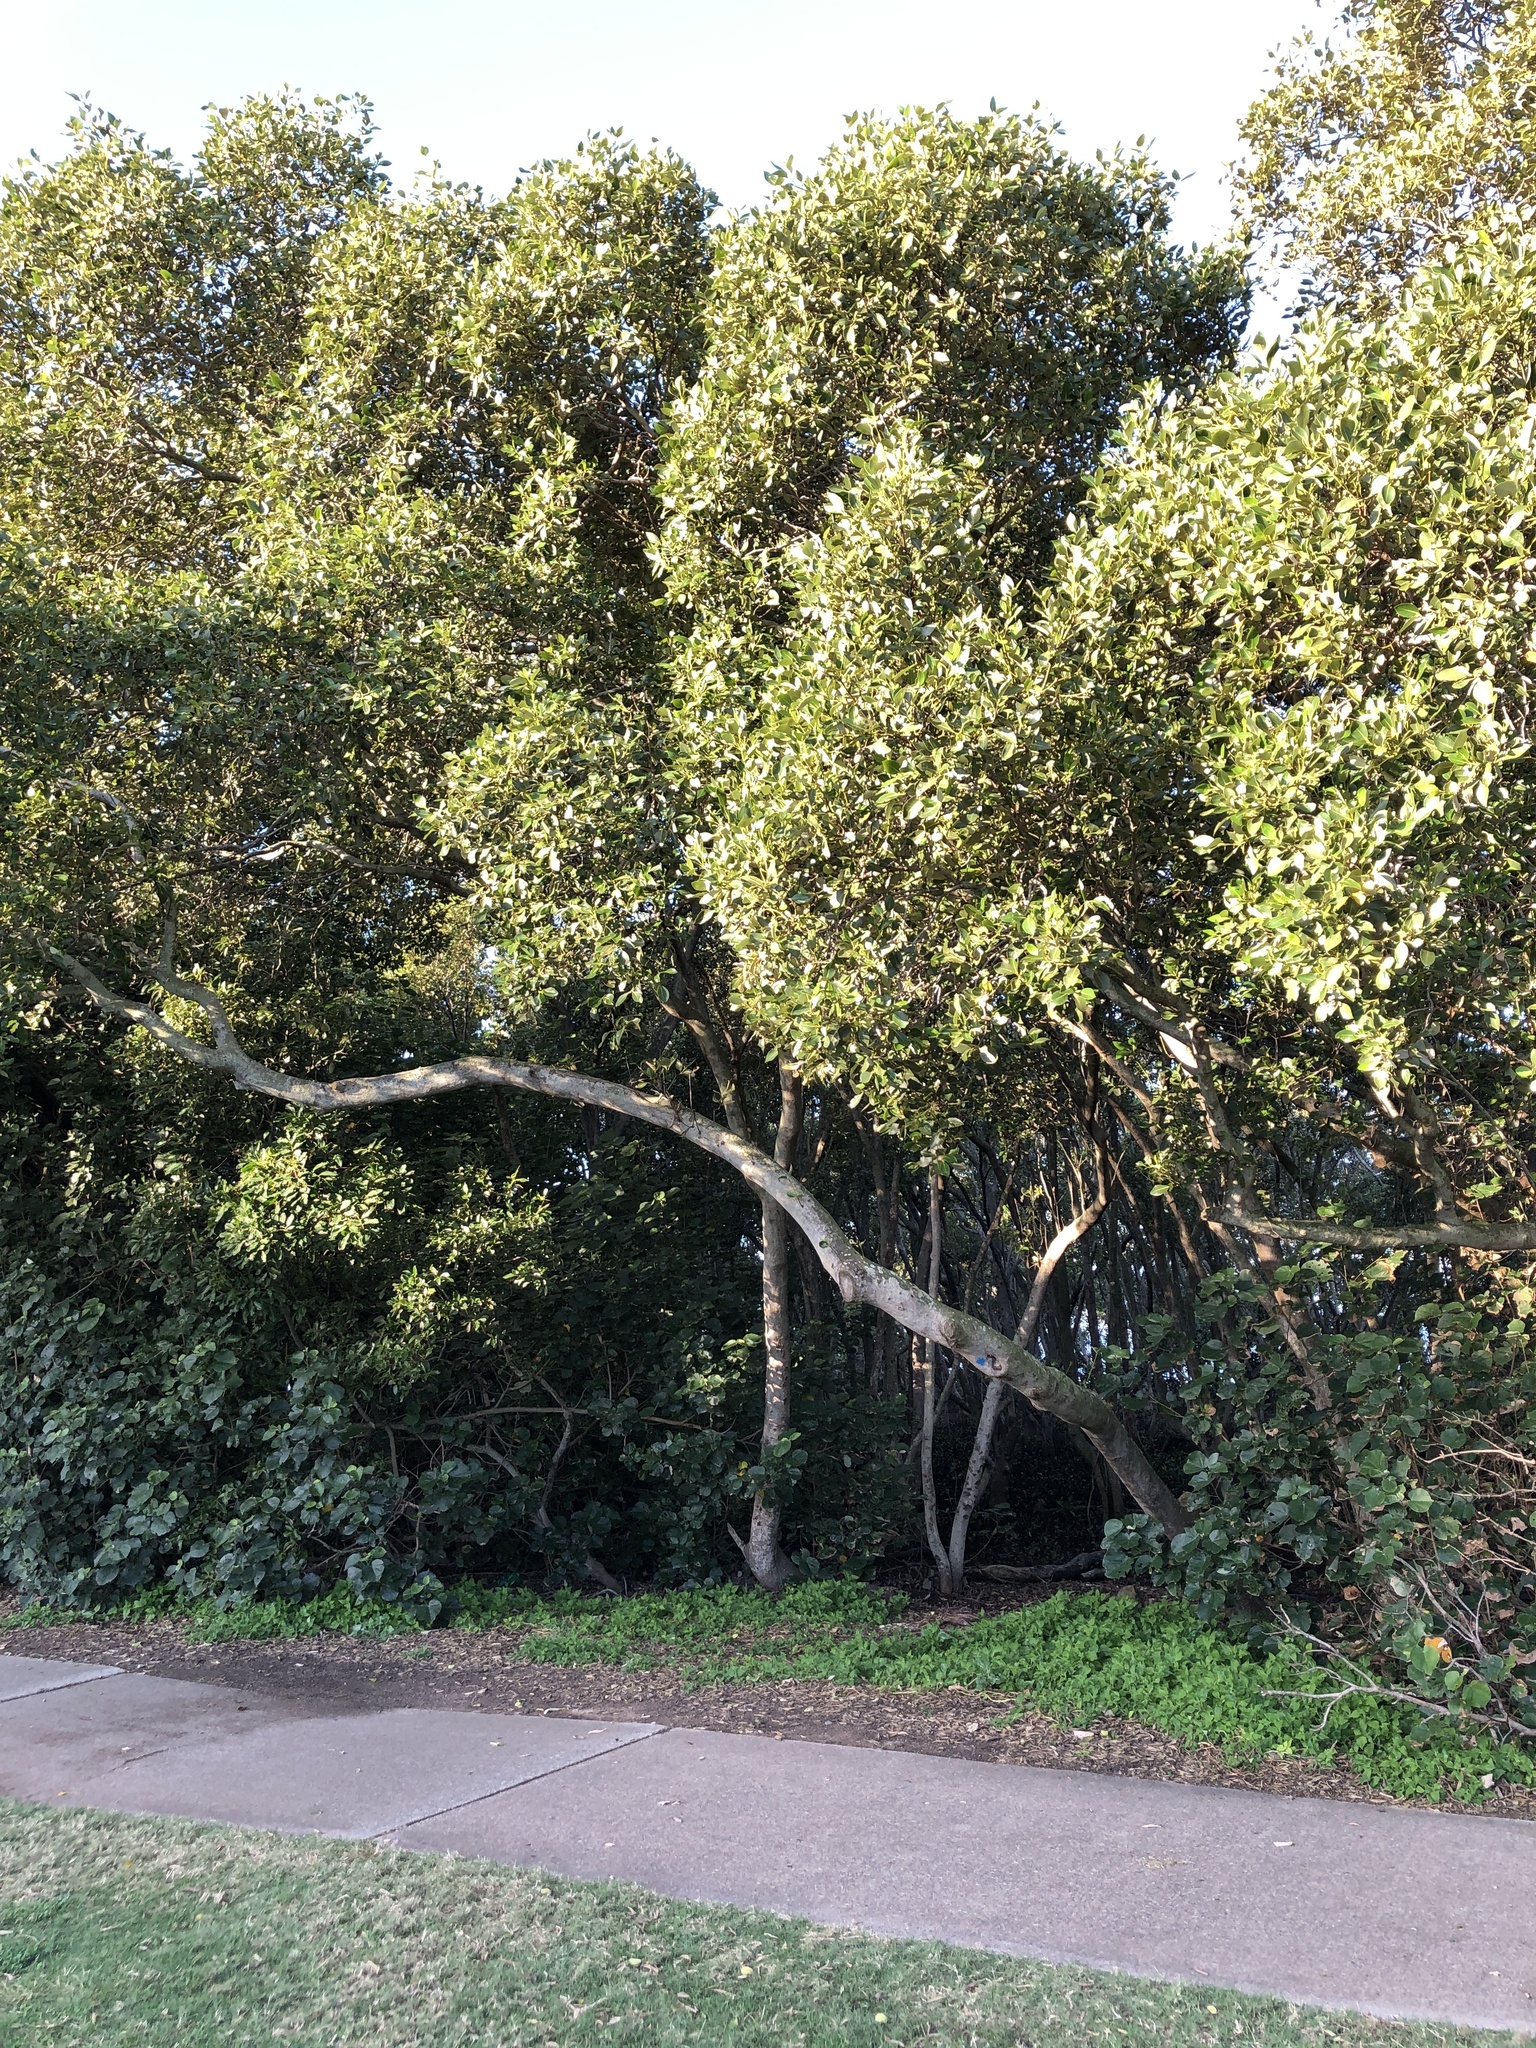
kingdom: Plantae
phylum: Tracheophyta
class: Magnoliopsida
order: Lamiales
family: Acanthaceae
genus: Avicennia
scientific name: Avicennia marina
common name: Gray mangrove
